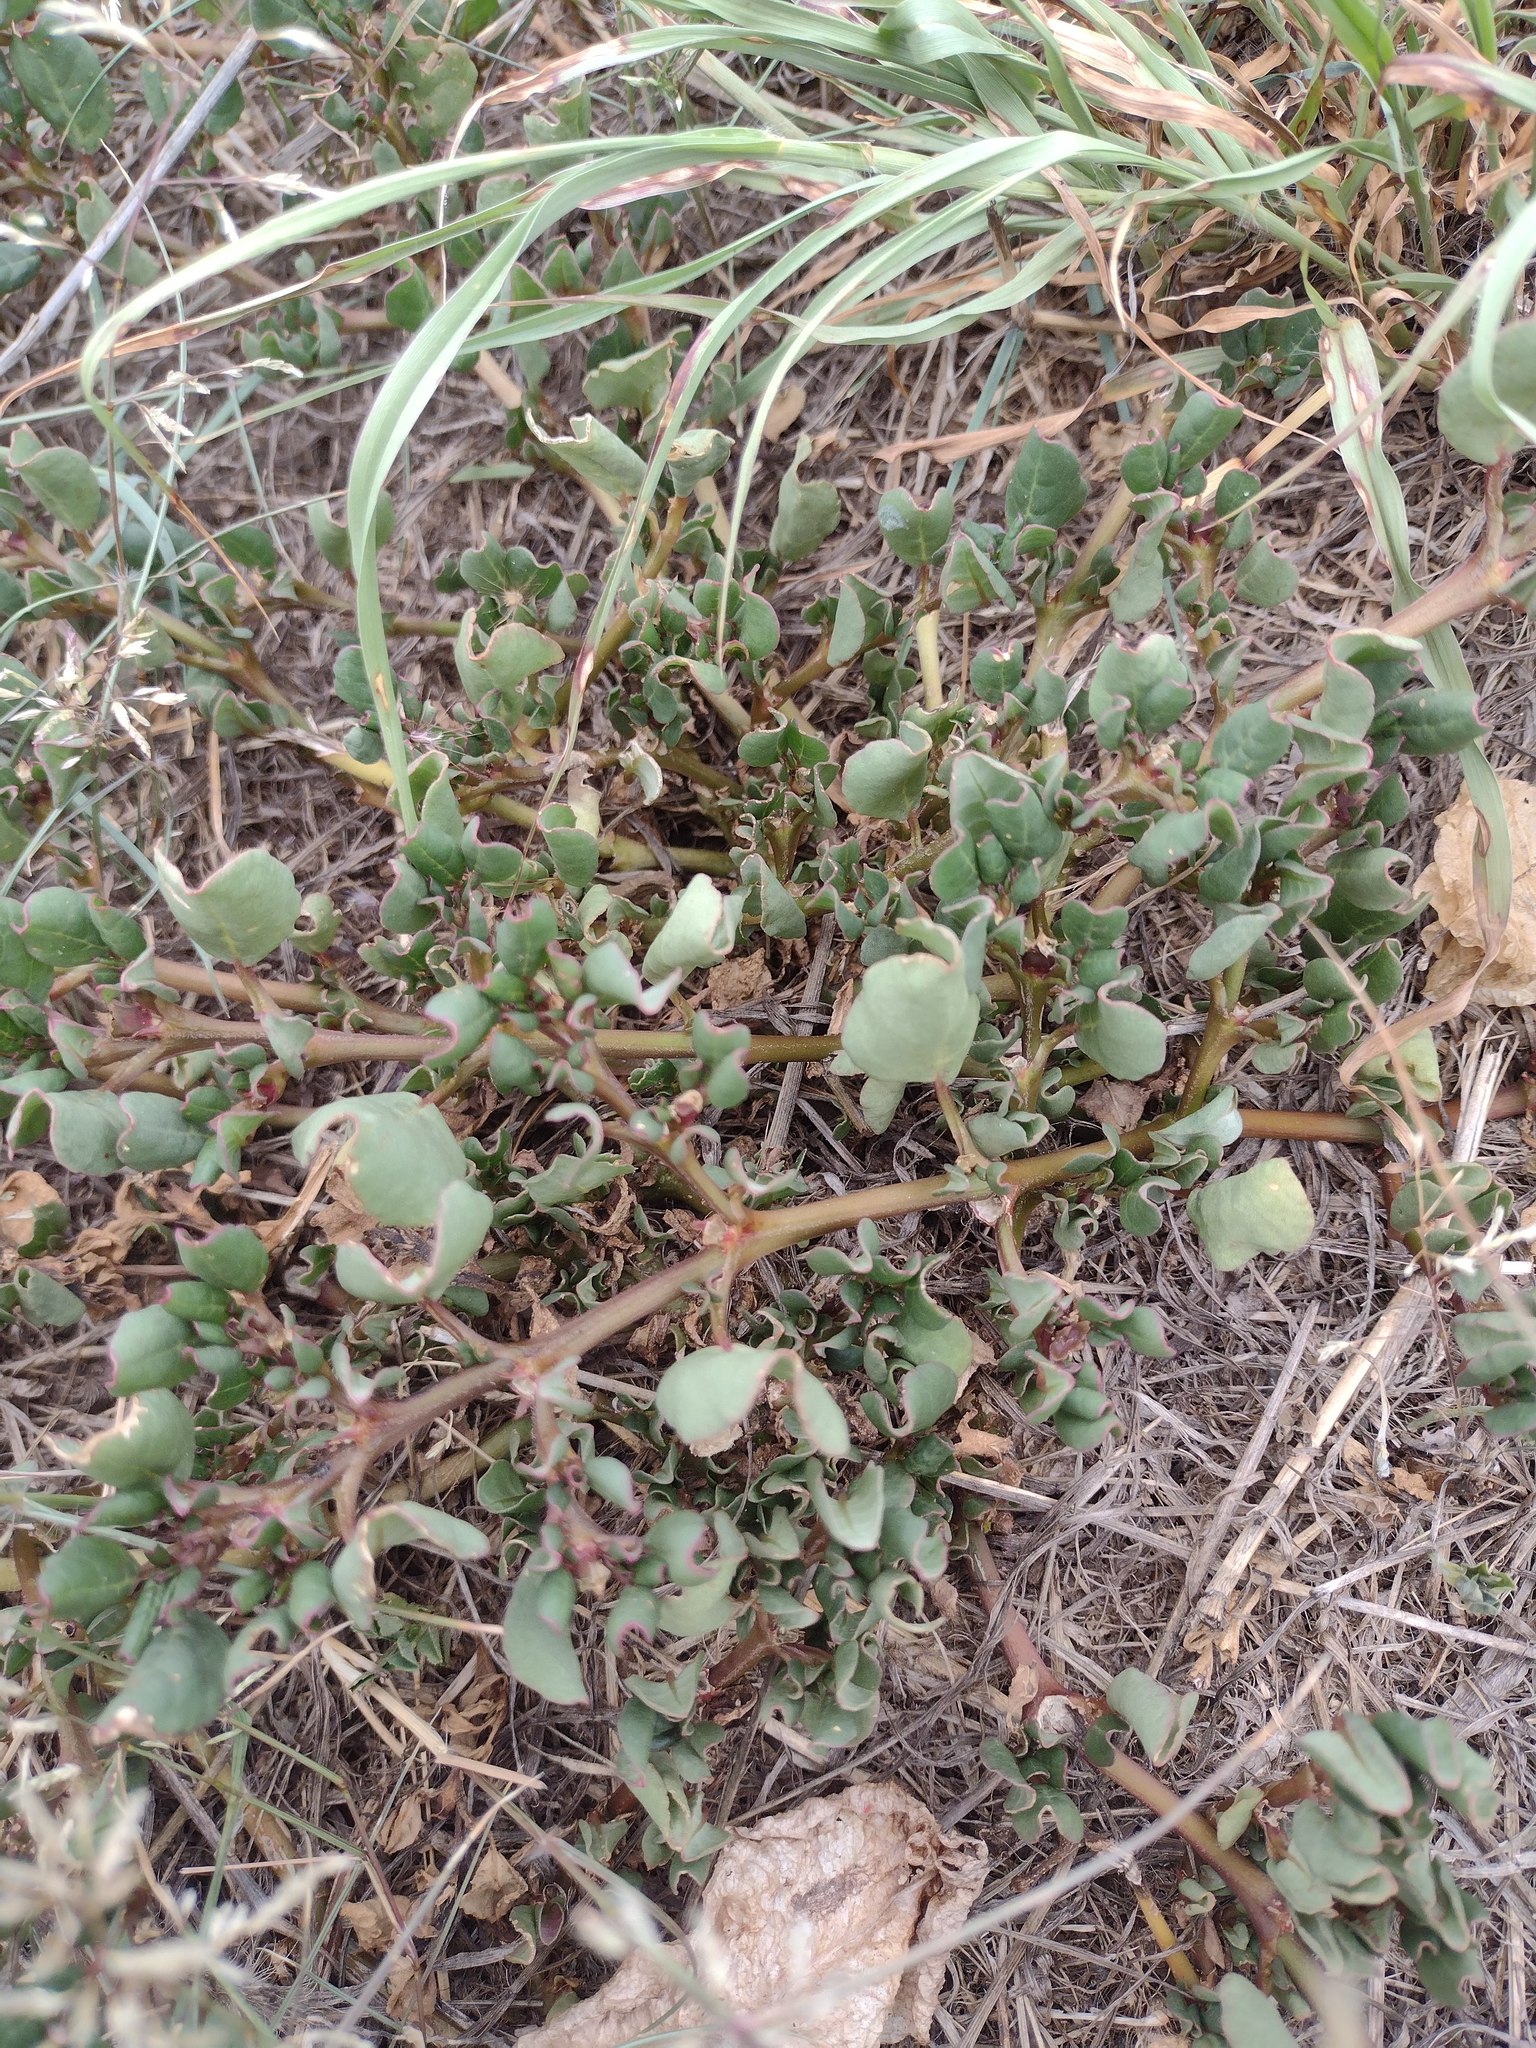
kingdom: Plantae
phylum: Tracheophyta
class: Magnoliopsida
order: Caryophyllales
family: Aizoaceae
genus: Trianthema
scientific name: Trianthema portulacastrum
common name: Desert horsepurslane
